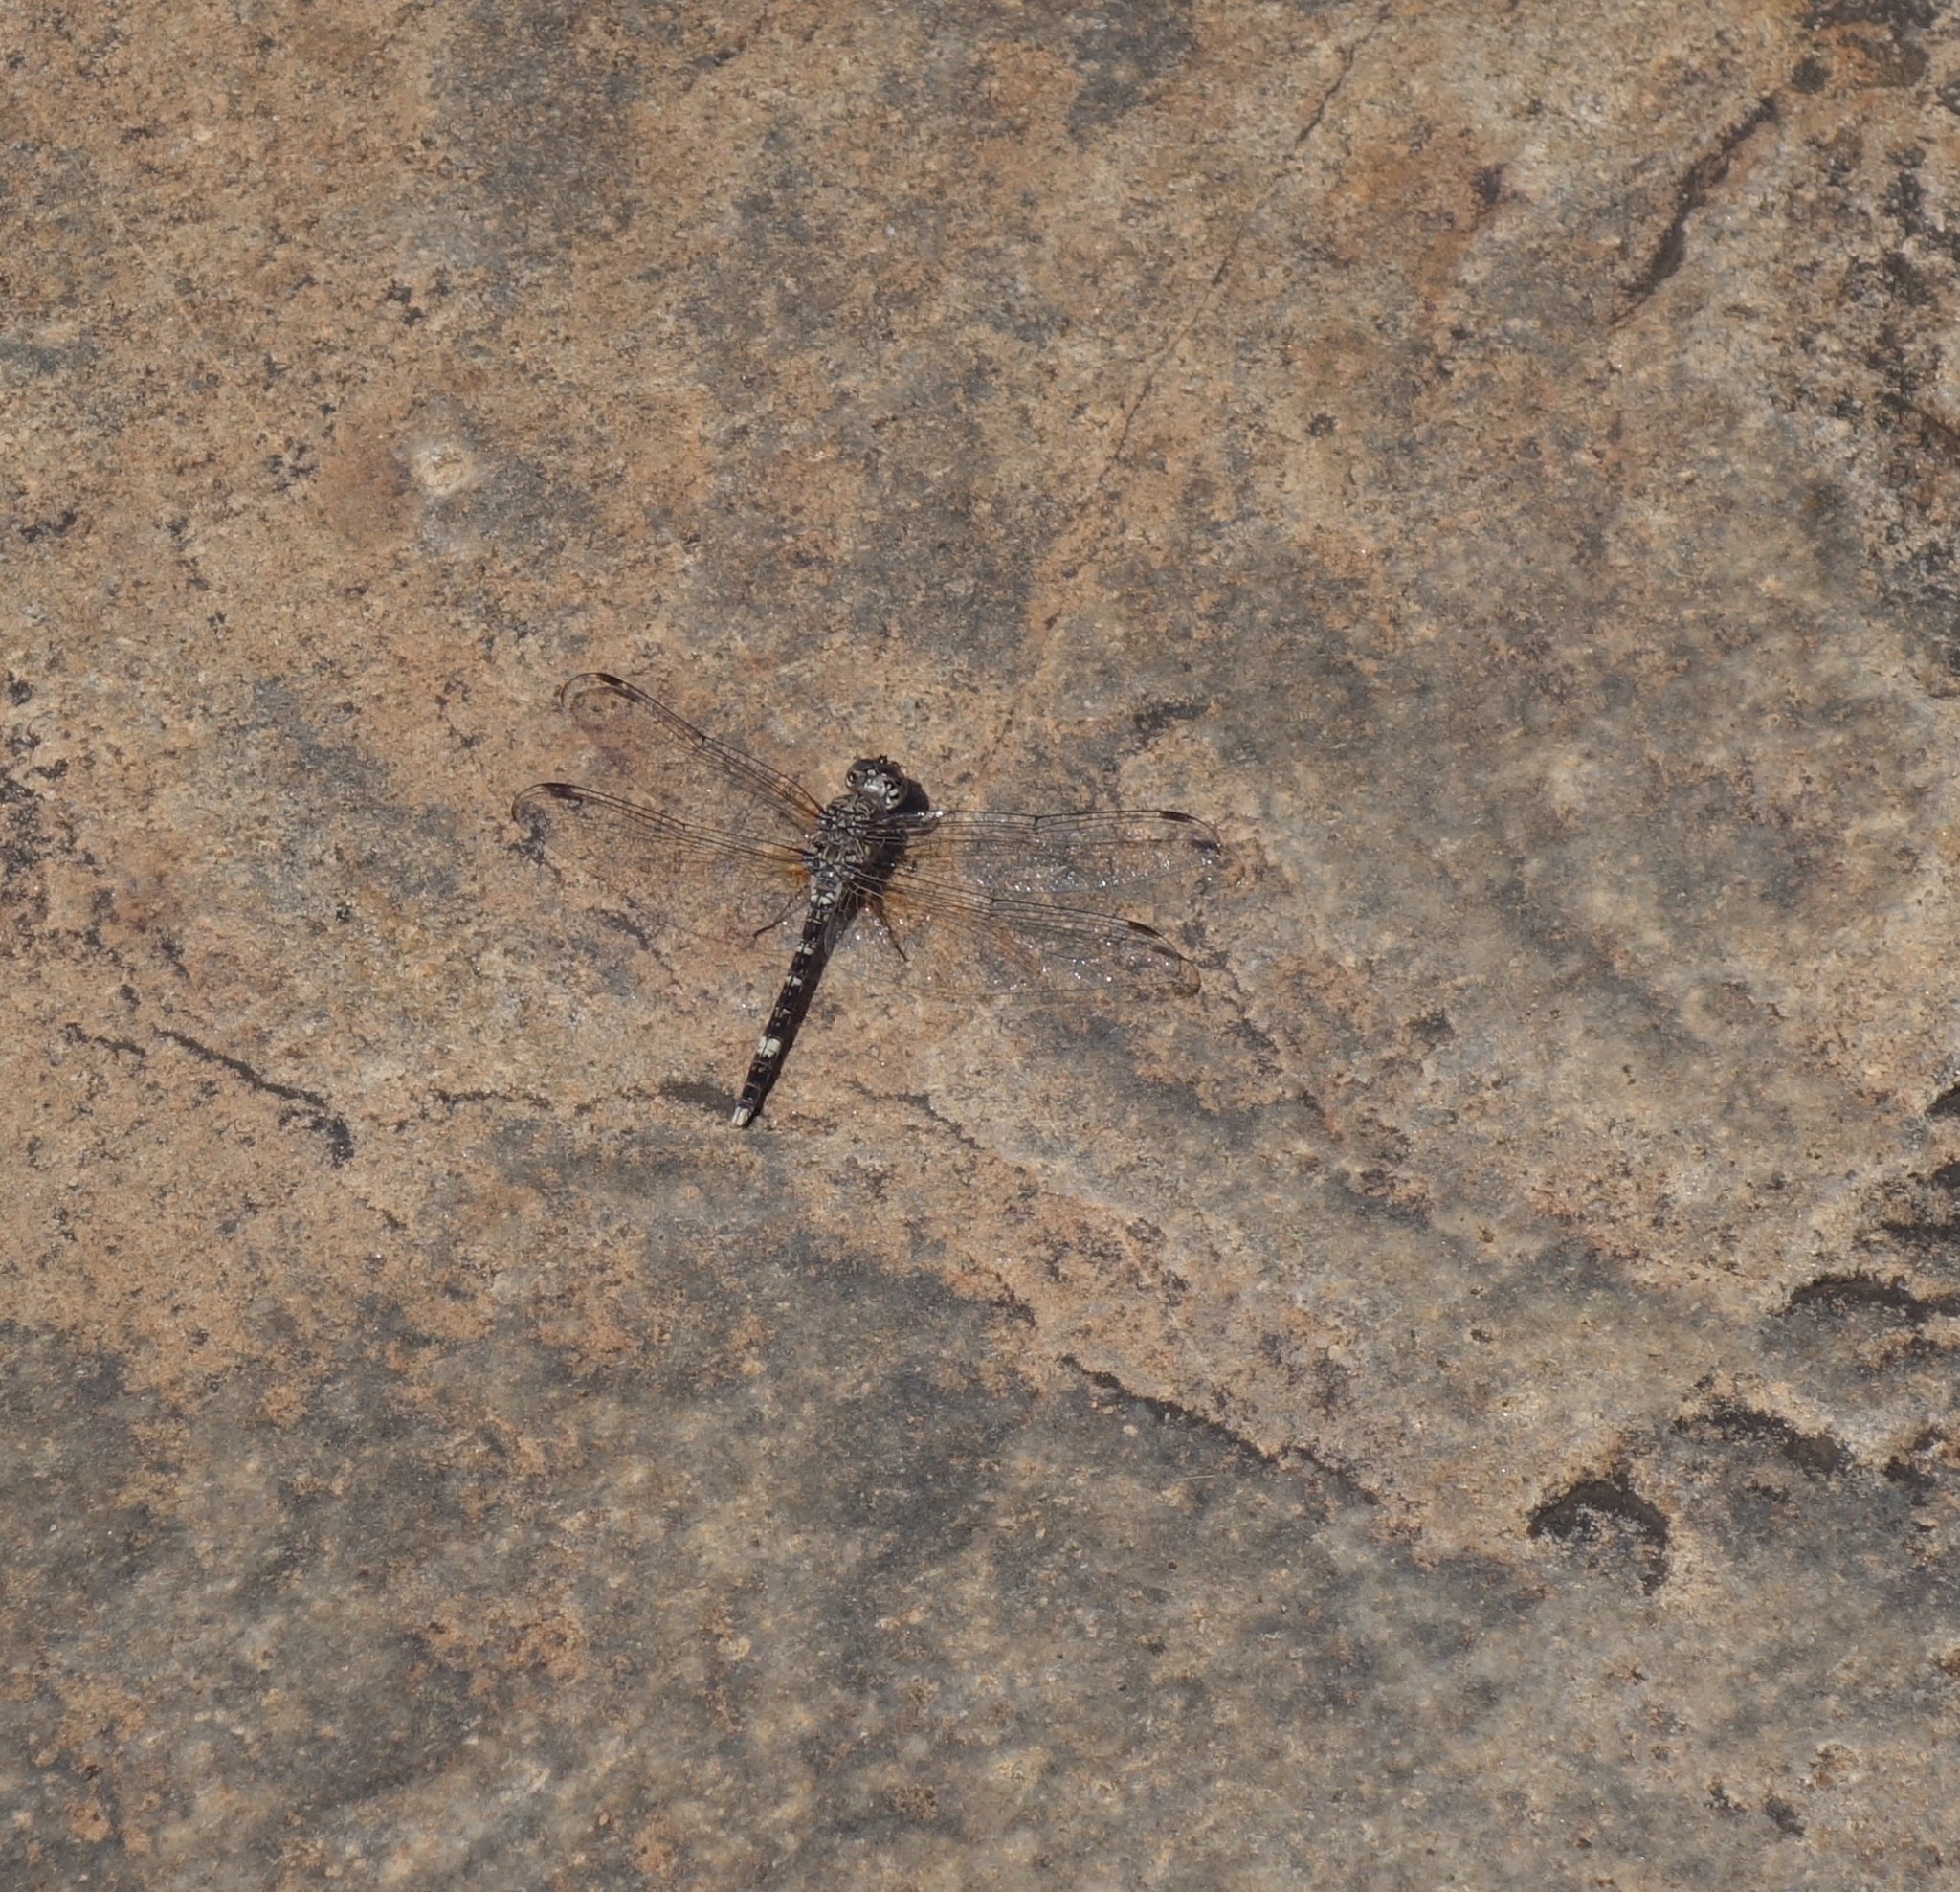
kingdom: Animalia
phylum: Arthropoda
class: Insecta
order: Odonata
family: Libellulidae
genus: Bradinopyga
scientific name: Bradinopyga cornuta
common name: Flecked wall-skimmer
